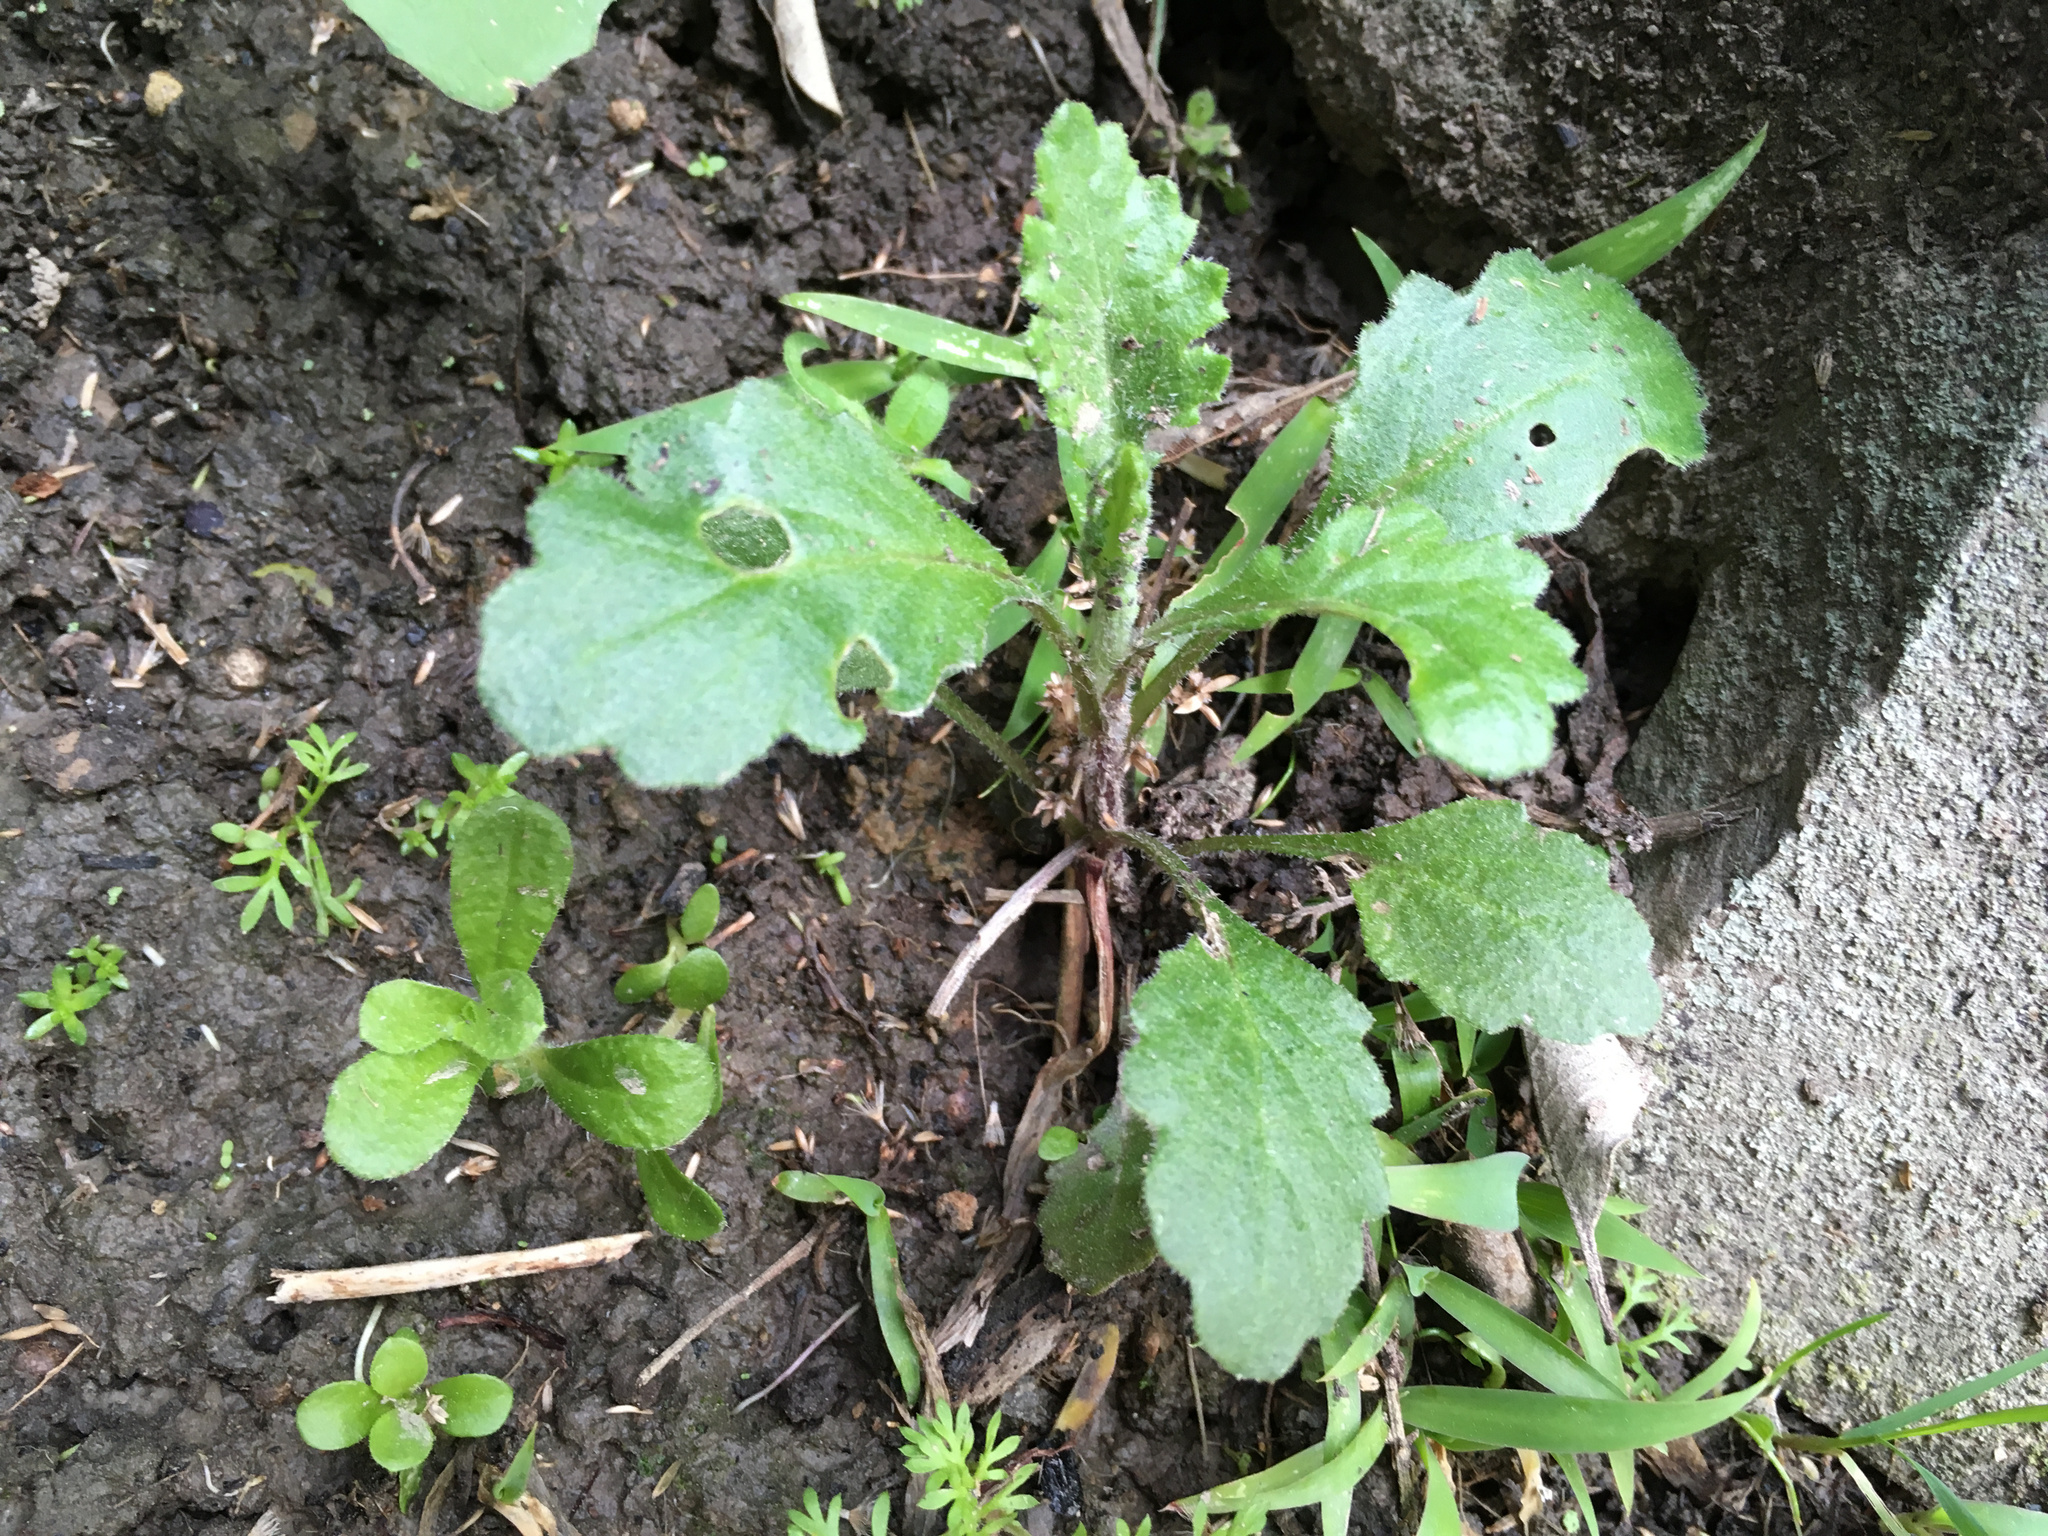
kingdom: Plantae
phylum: Tracheophyta
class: Magnoliopsida
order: Asterales
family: Asteraceae
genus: Senecio
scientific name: Senecio glomeratus
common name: Cutleaf burnweed
